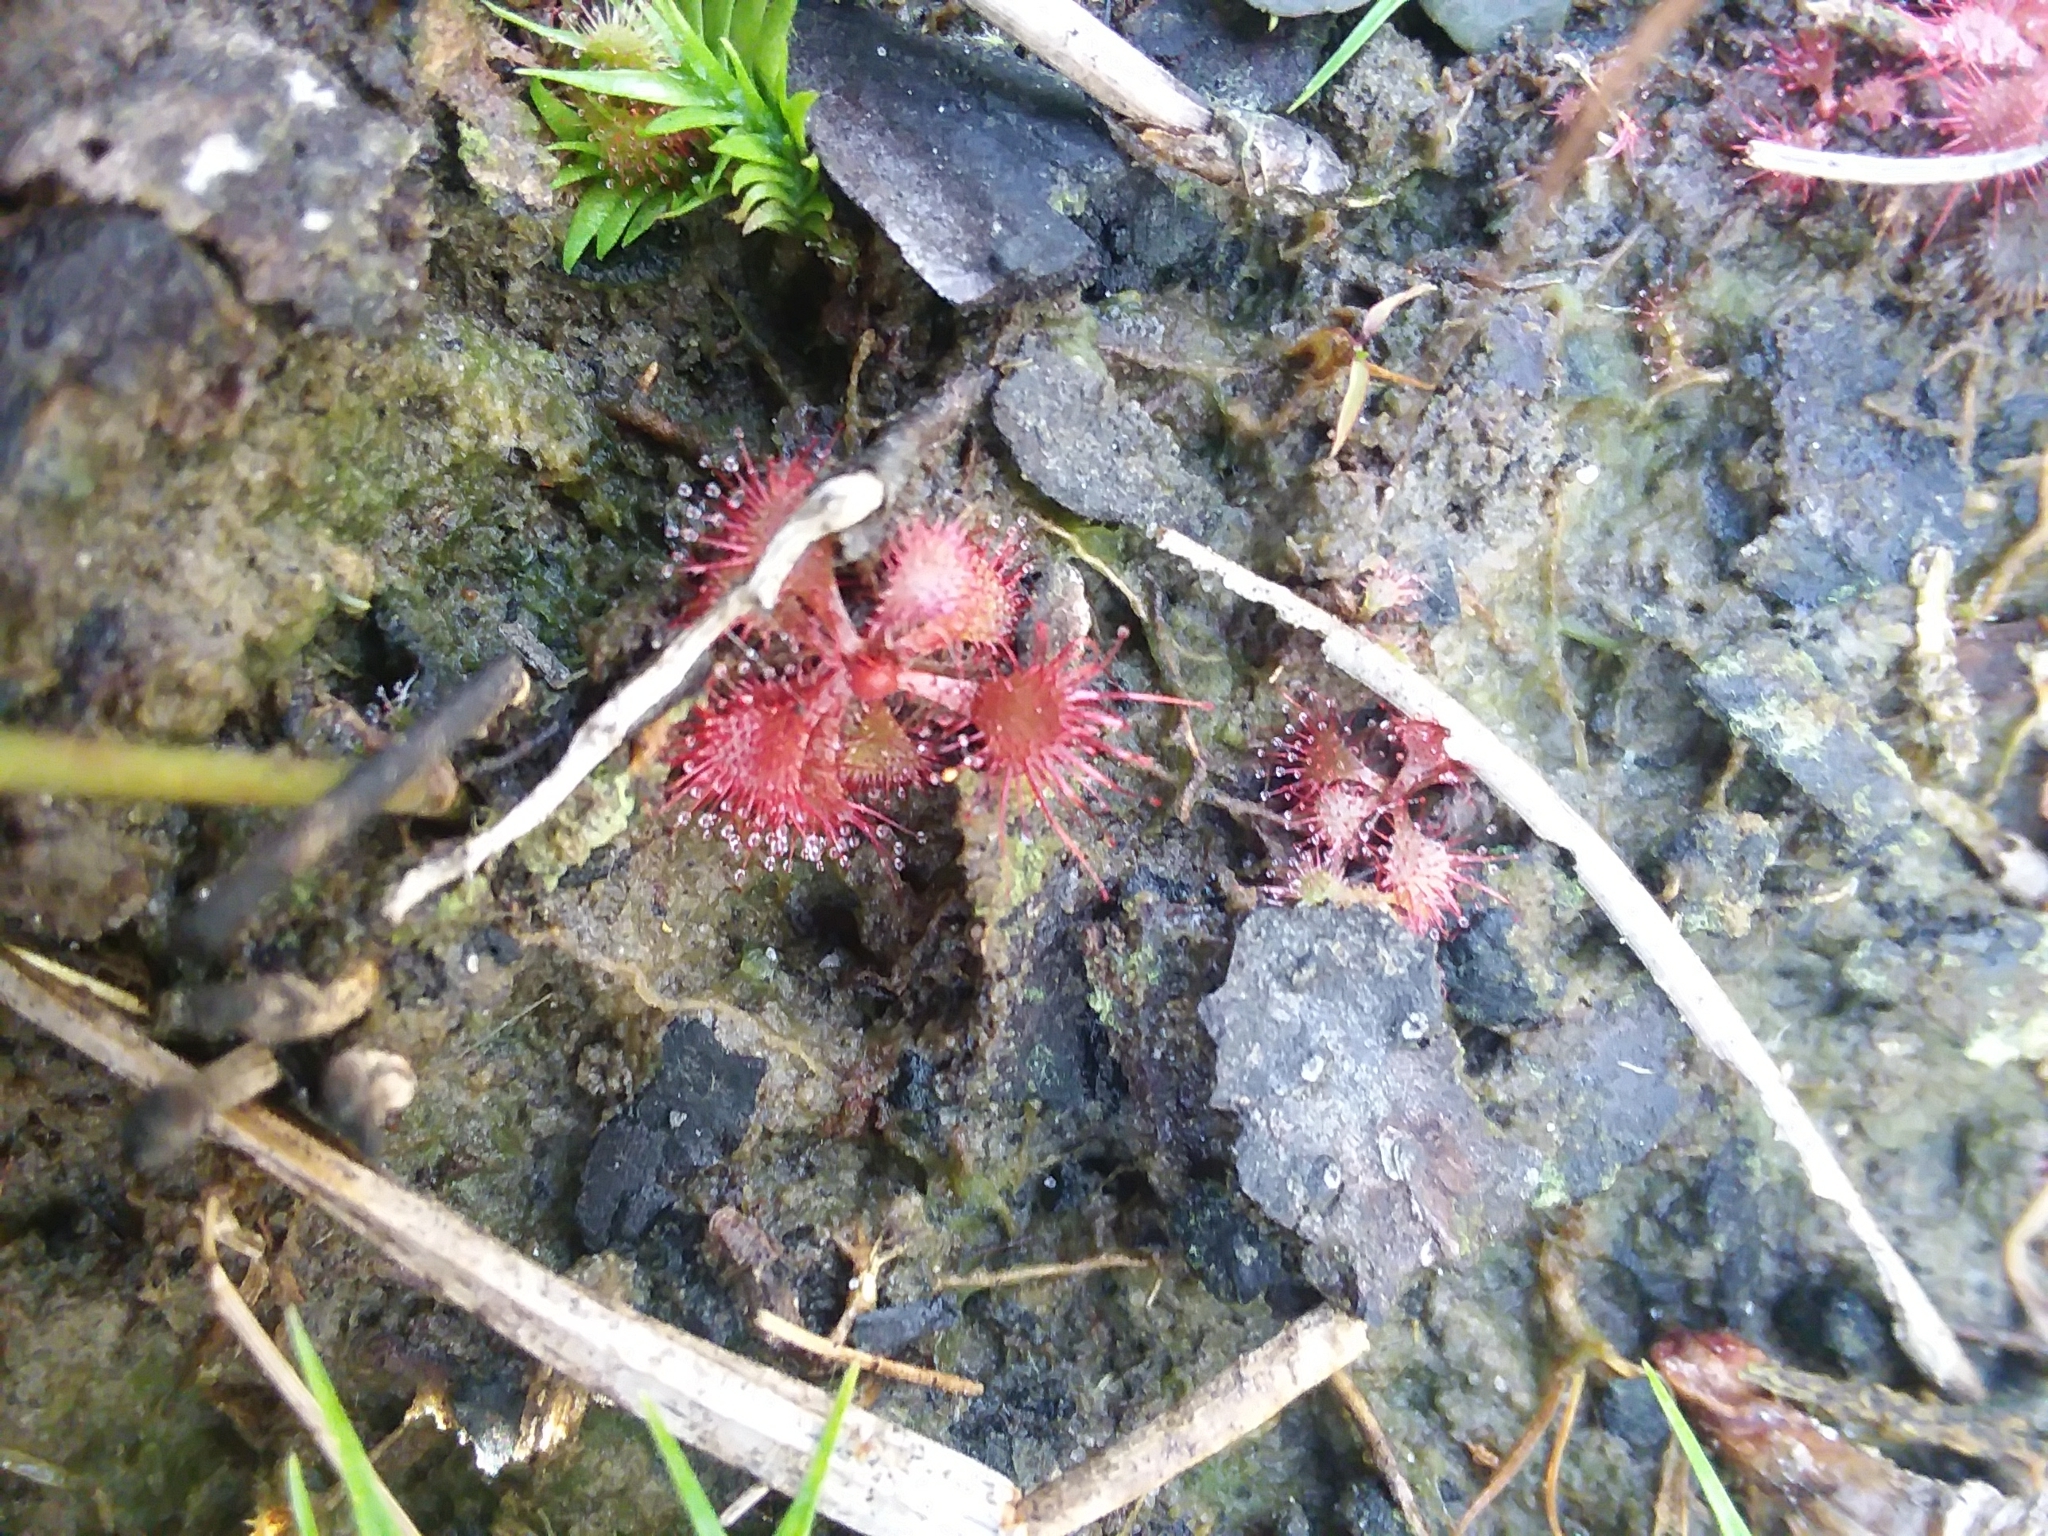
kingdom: Plantae
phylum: Tracheophyta
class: Magnoliopsida
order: Caryophyllales
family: Droseraceae
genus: Drosera
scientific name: Drosera brevifolia
